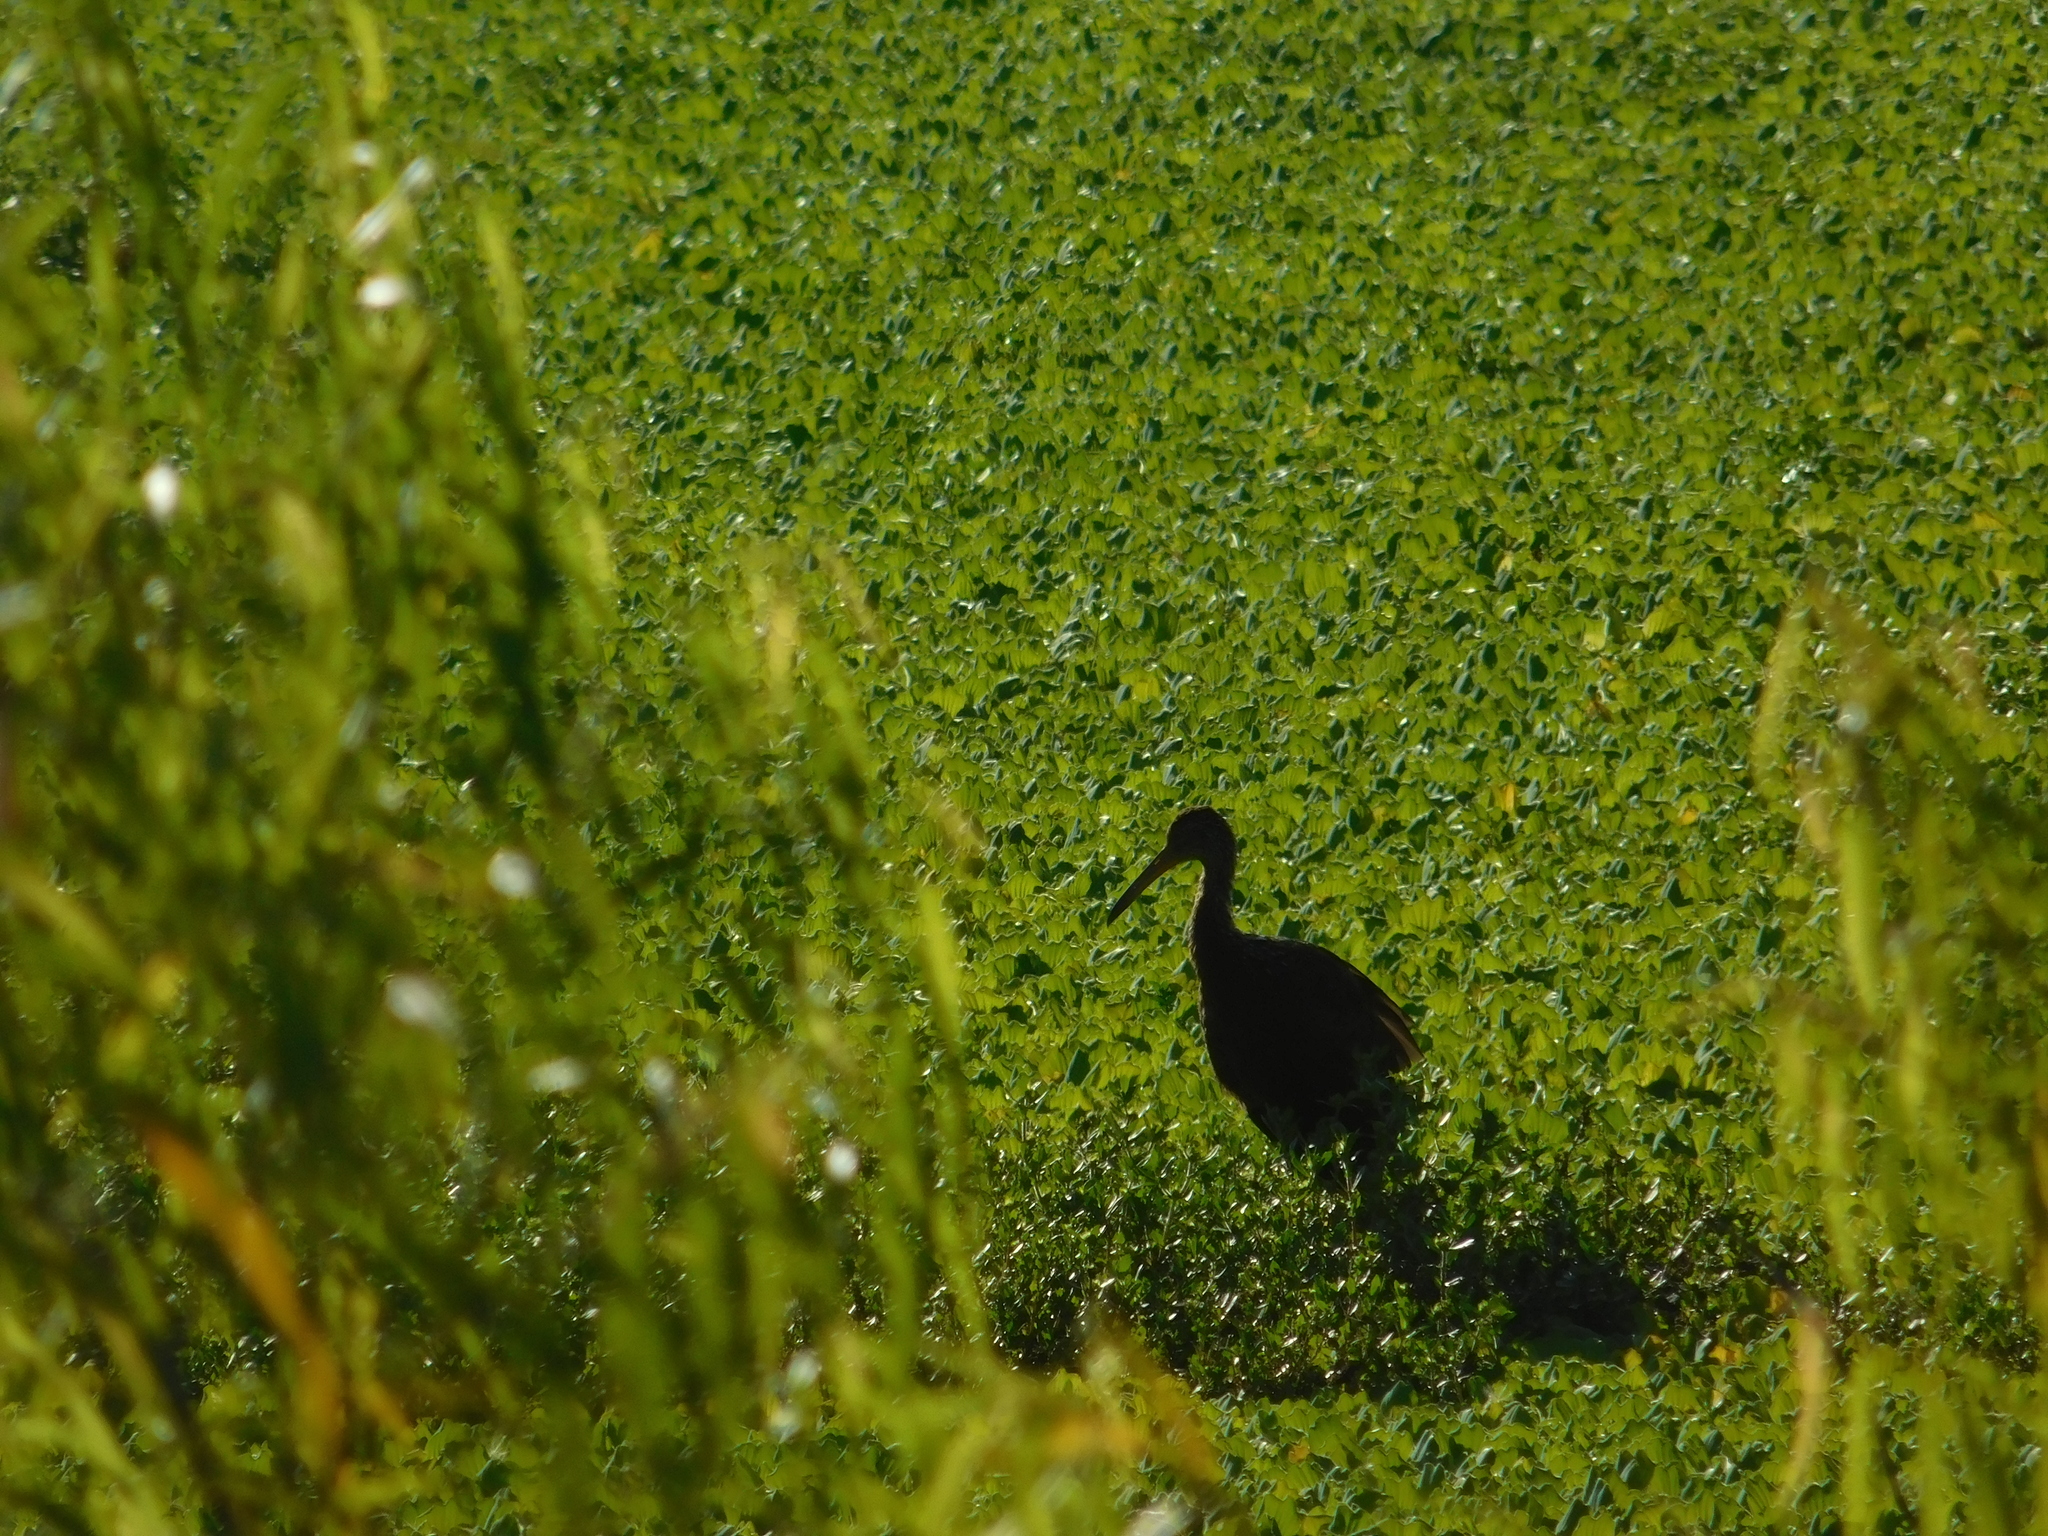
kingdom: Animalia
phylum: Chordata
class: Aves
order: Gruiformes
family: Aramidae
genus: Aramus
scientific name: Aramus guarauna
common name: Limpkin
